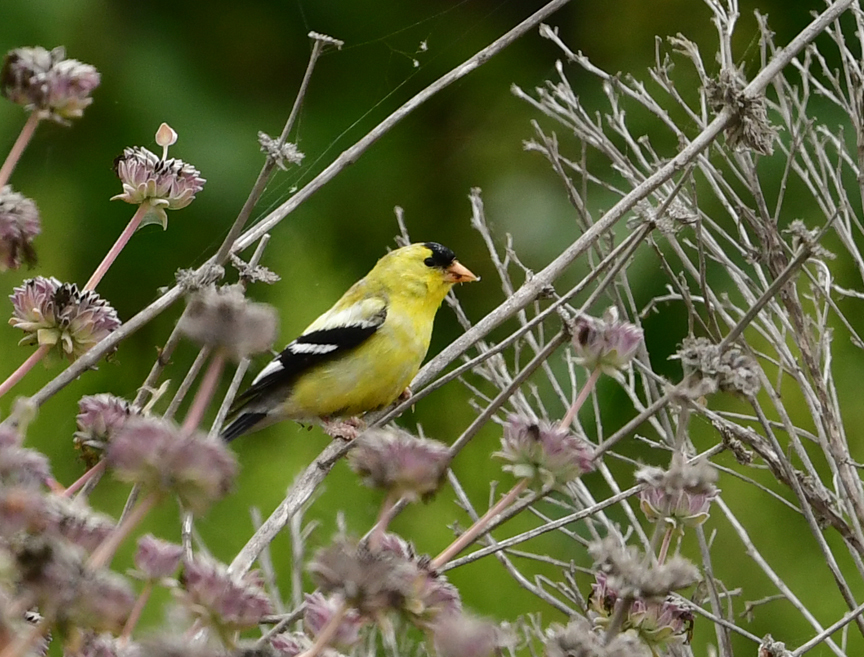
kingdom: Animalia
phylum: Chordata
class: Aves
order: Passeriformes
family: Fringillidae
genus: Spinus
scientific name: Spinus tristis
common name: American goldfinch
